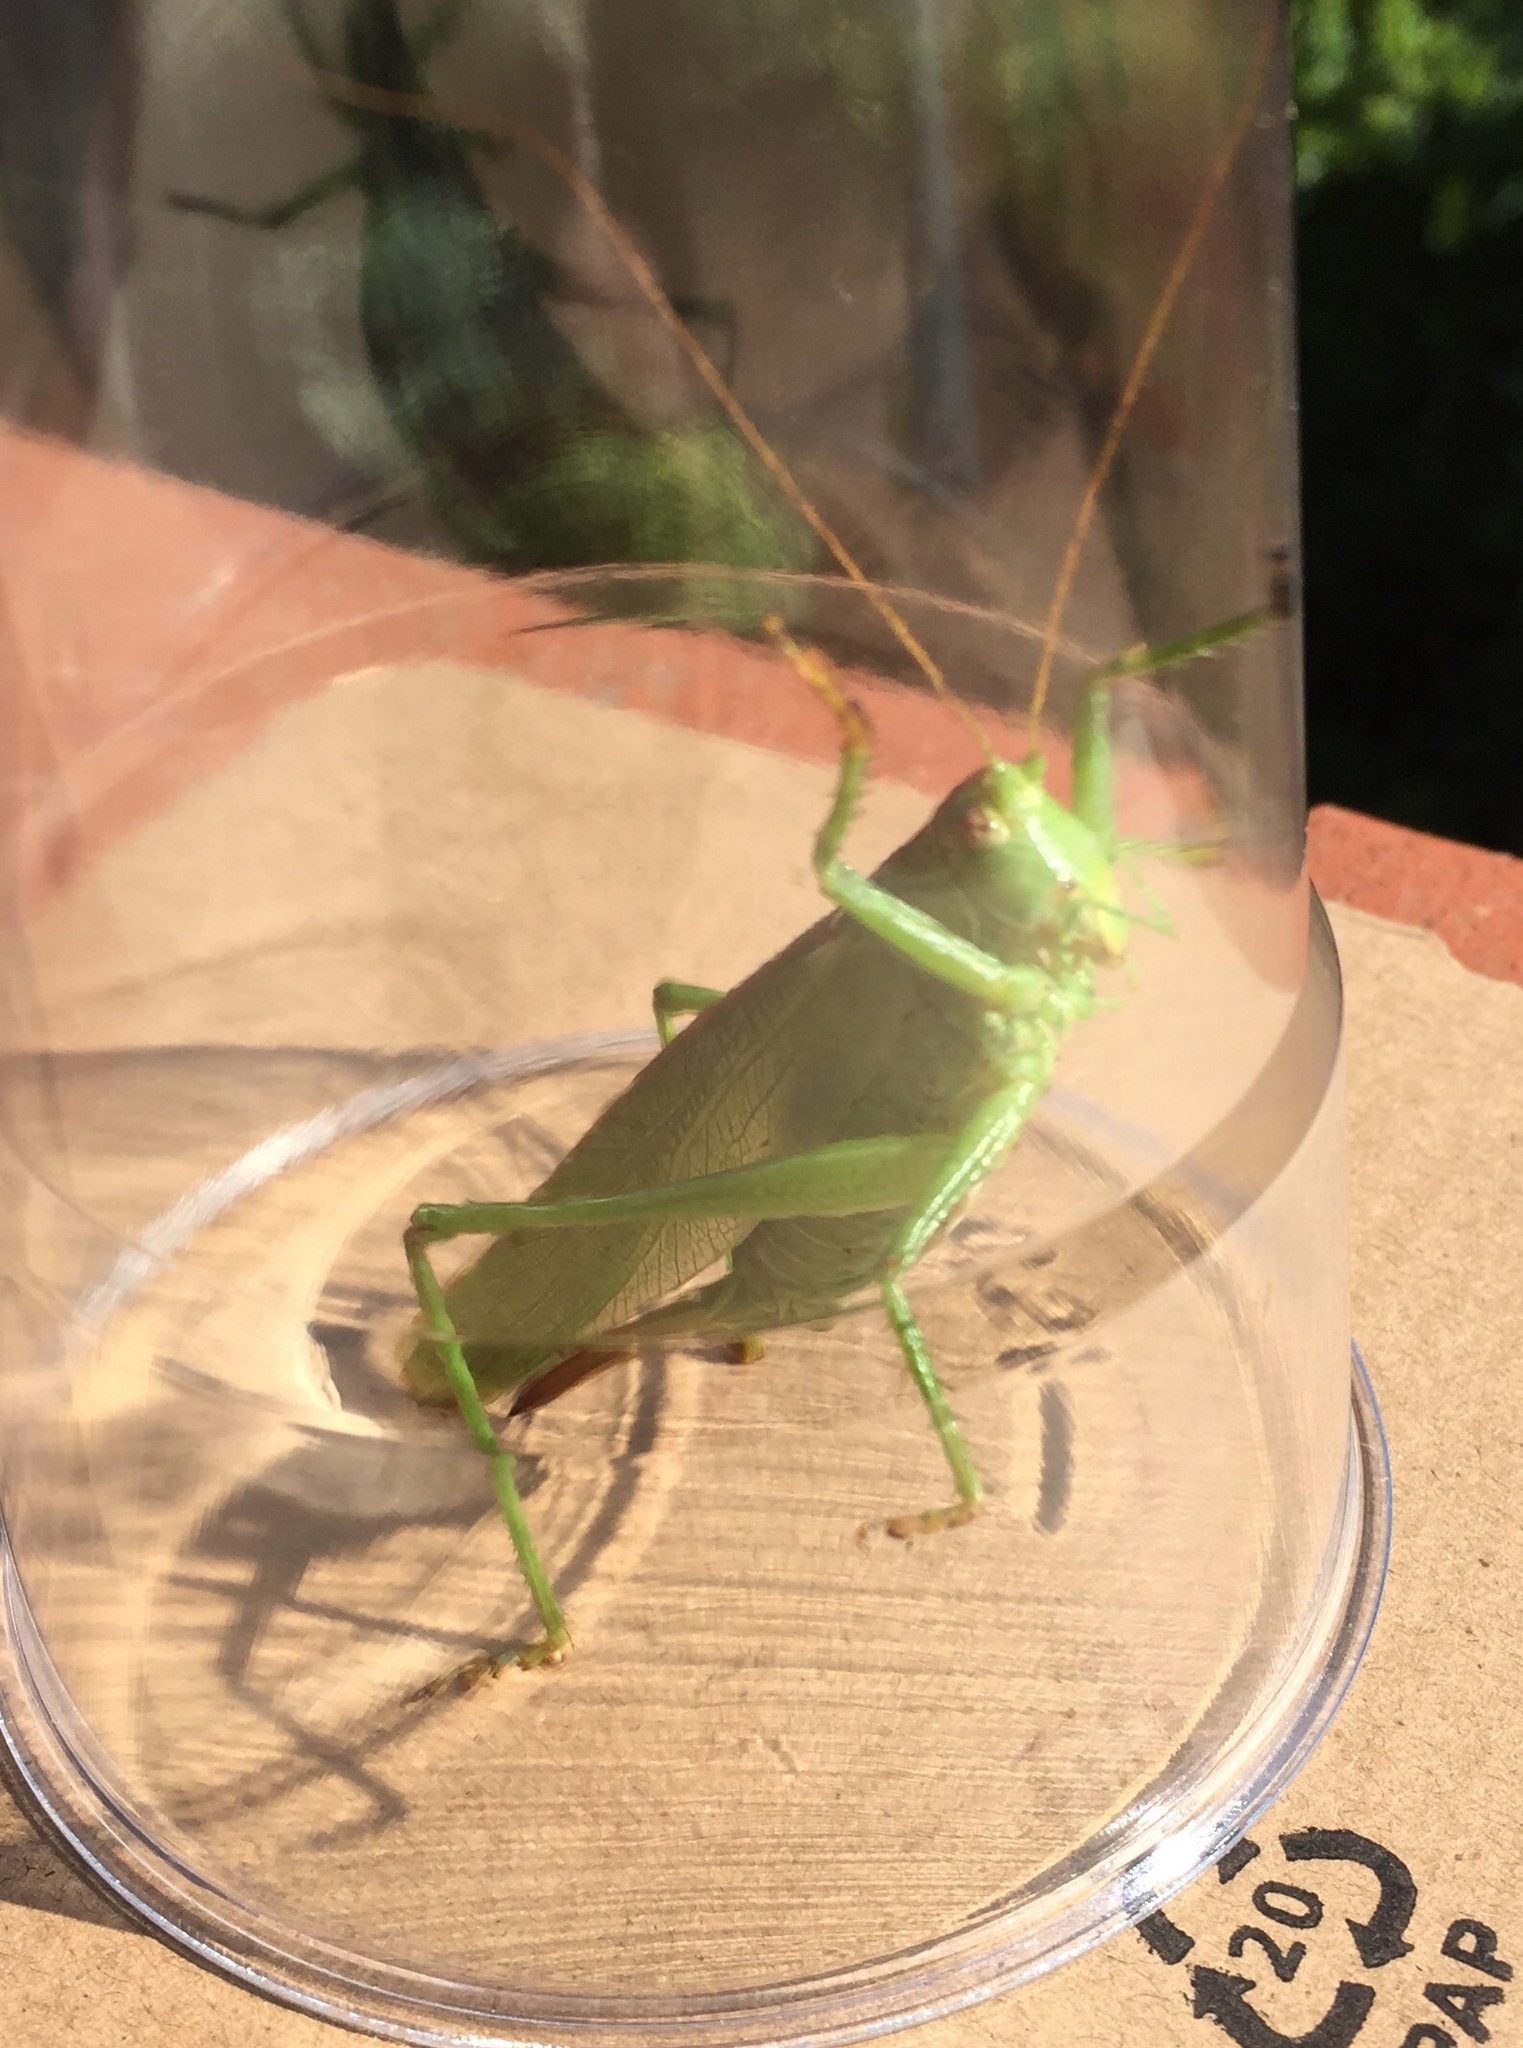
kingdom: Animalia
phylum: Arthropoda
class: Insecta
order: Orthoptera
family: Tettigoniidae
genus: Tettigonia
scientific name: Tettigonia viridissima
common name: Great green bush-cricket
